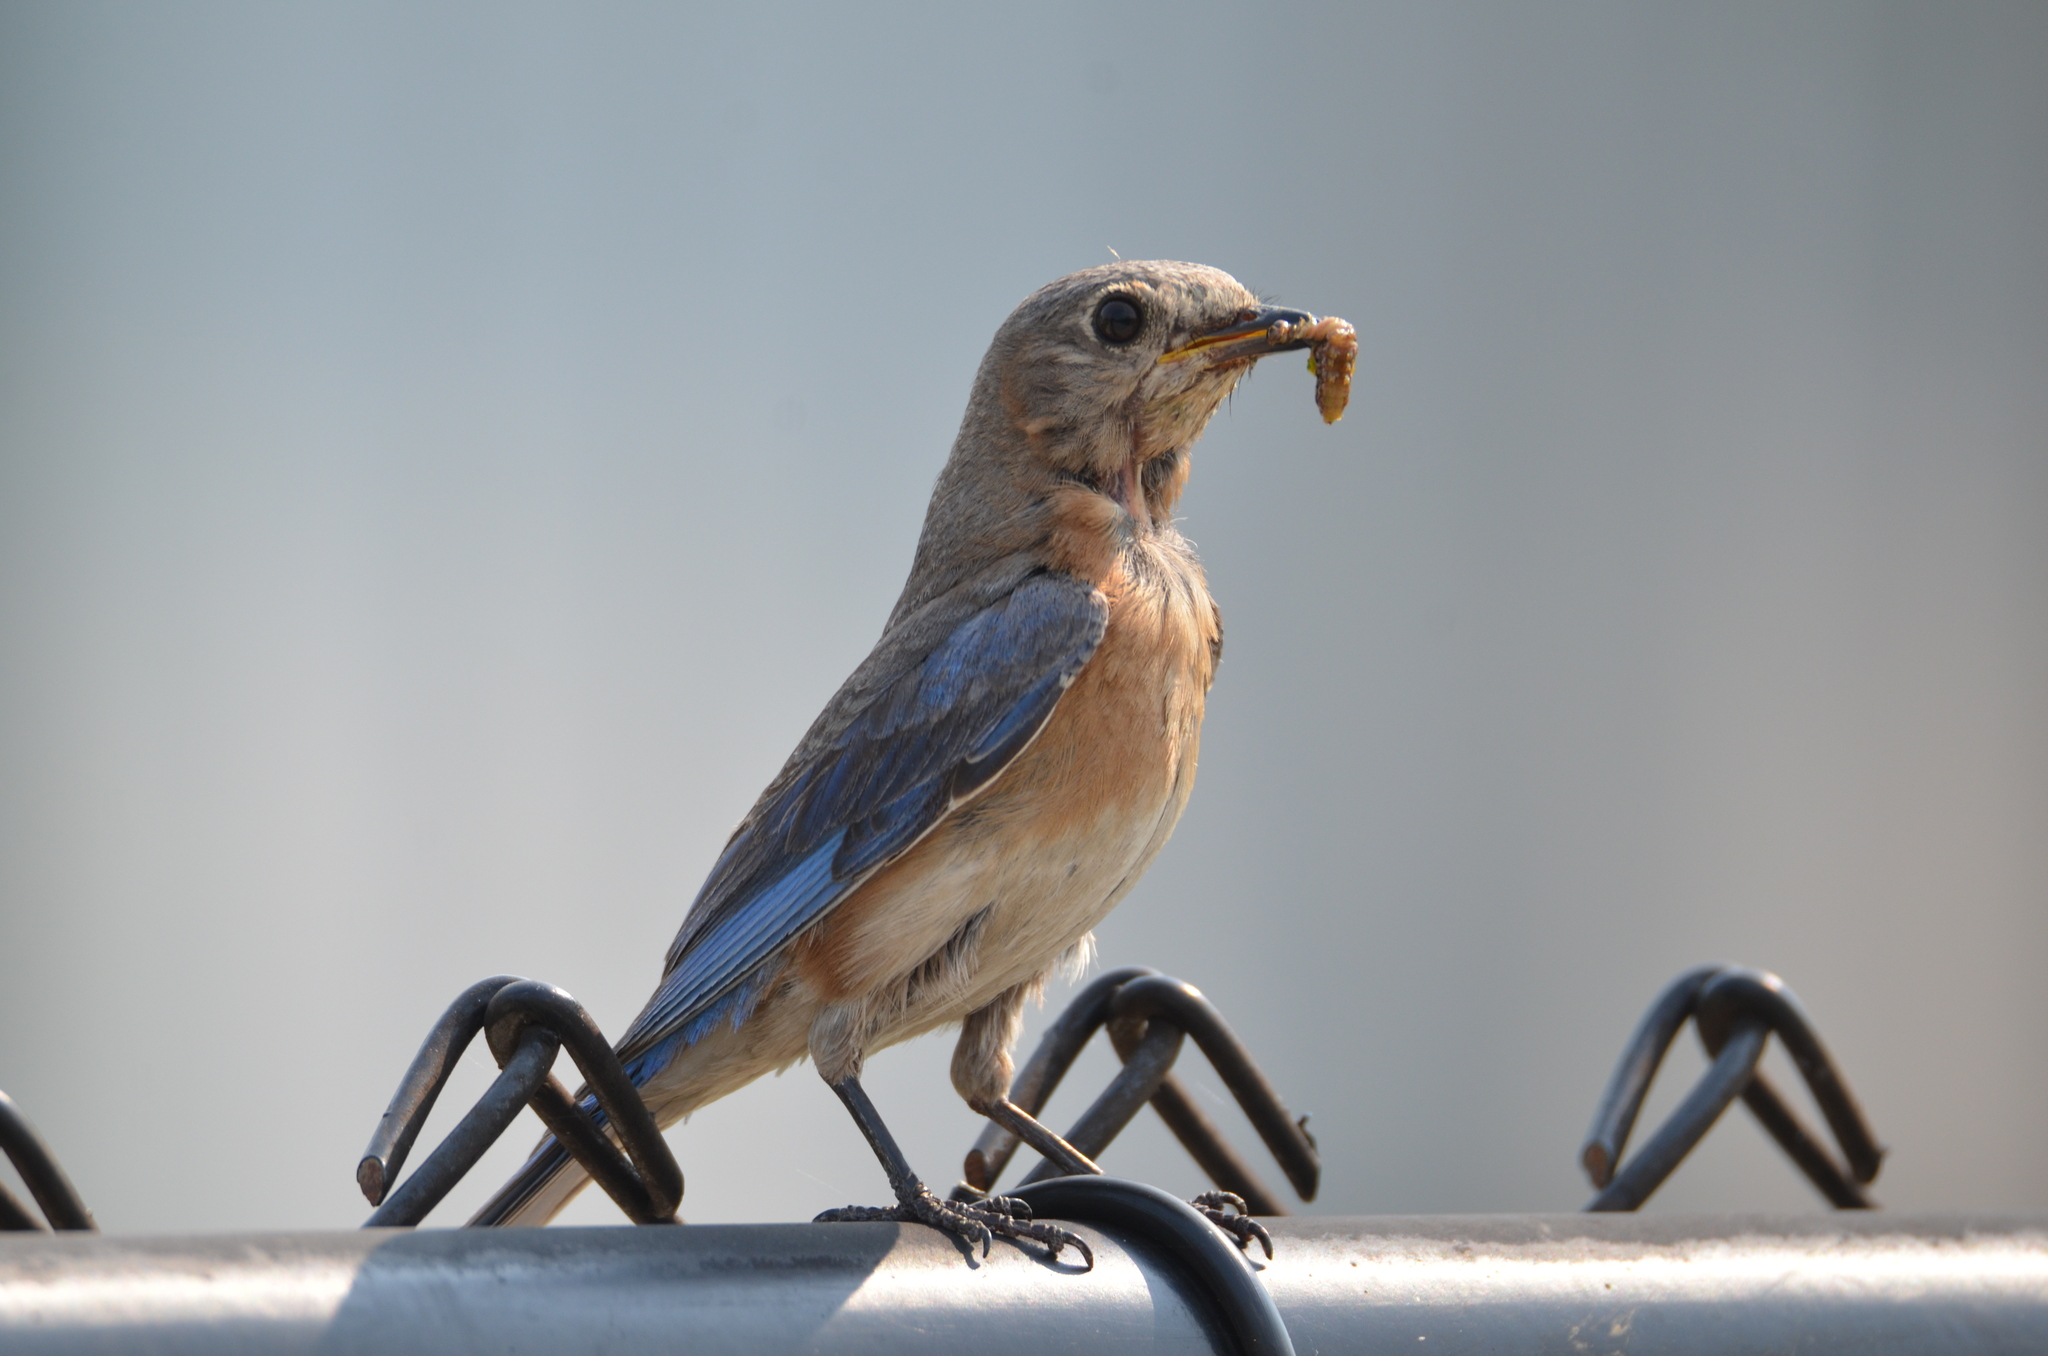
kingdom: Animalia
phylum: Chordata
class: Aves
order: Passeriformes
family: Turdidae
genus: Sialia
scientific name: Sialia sialis
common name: Eastern bluebird
